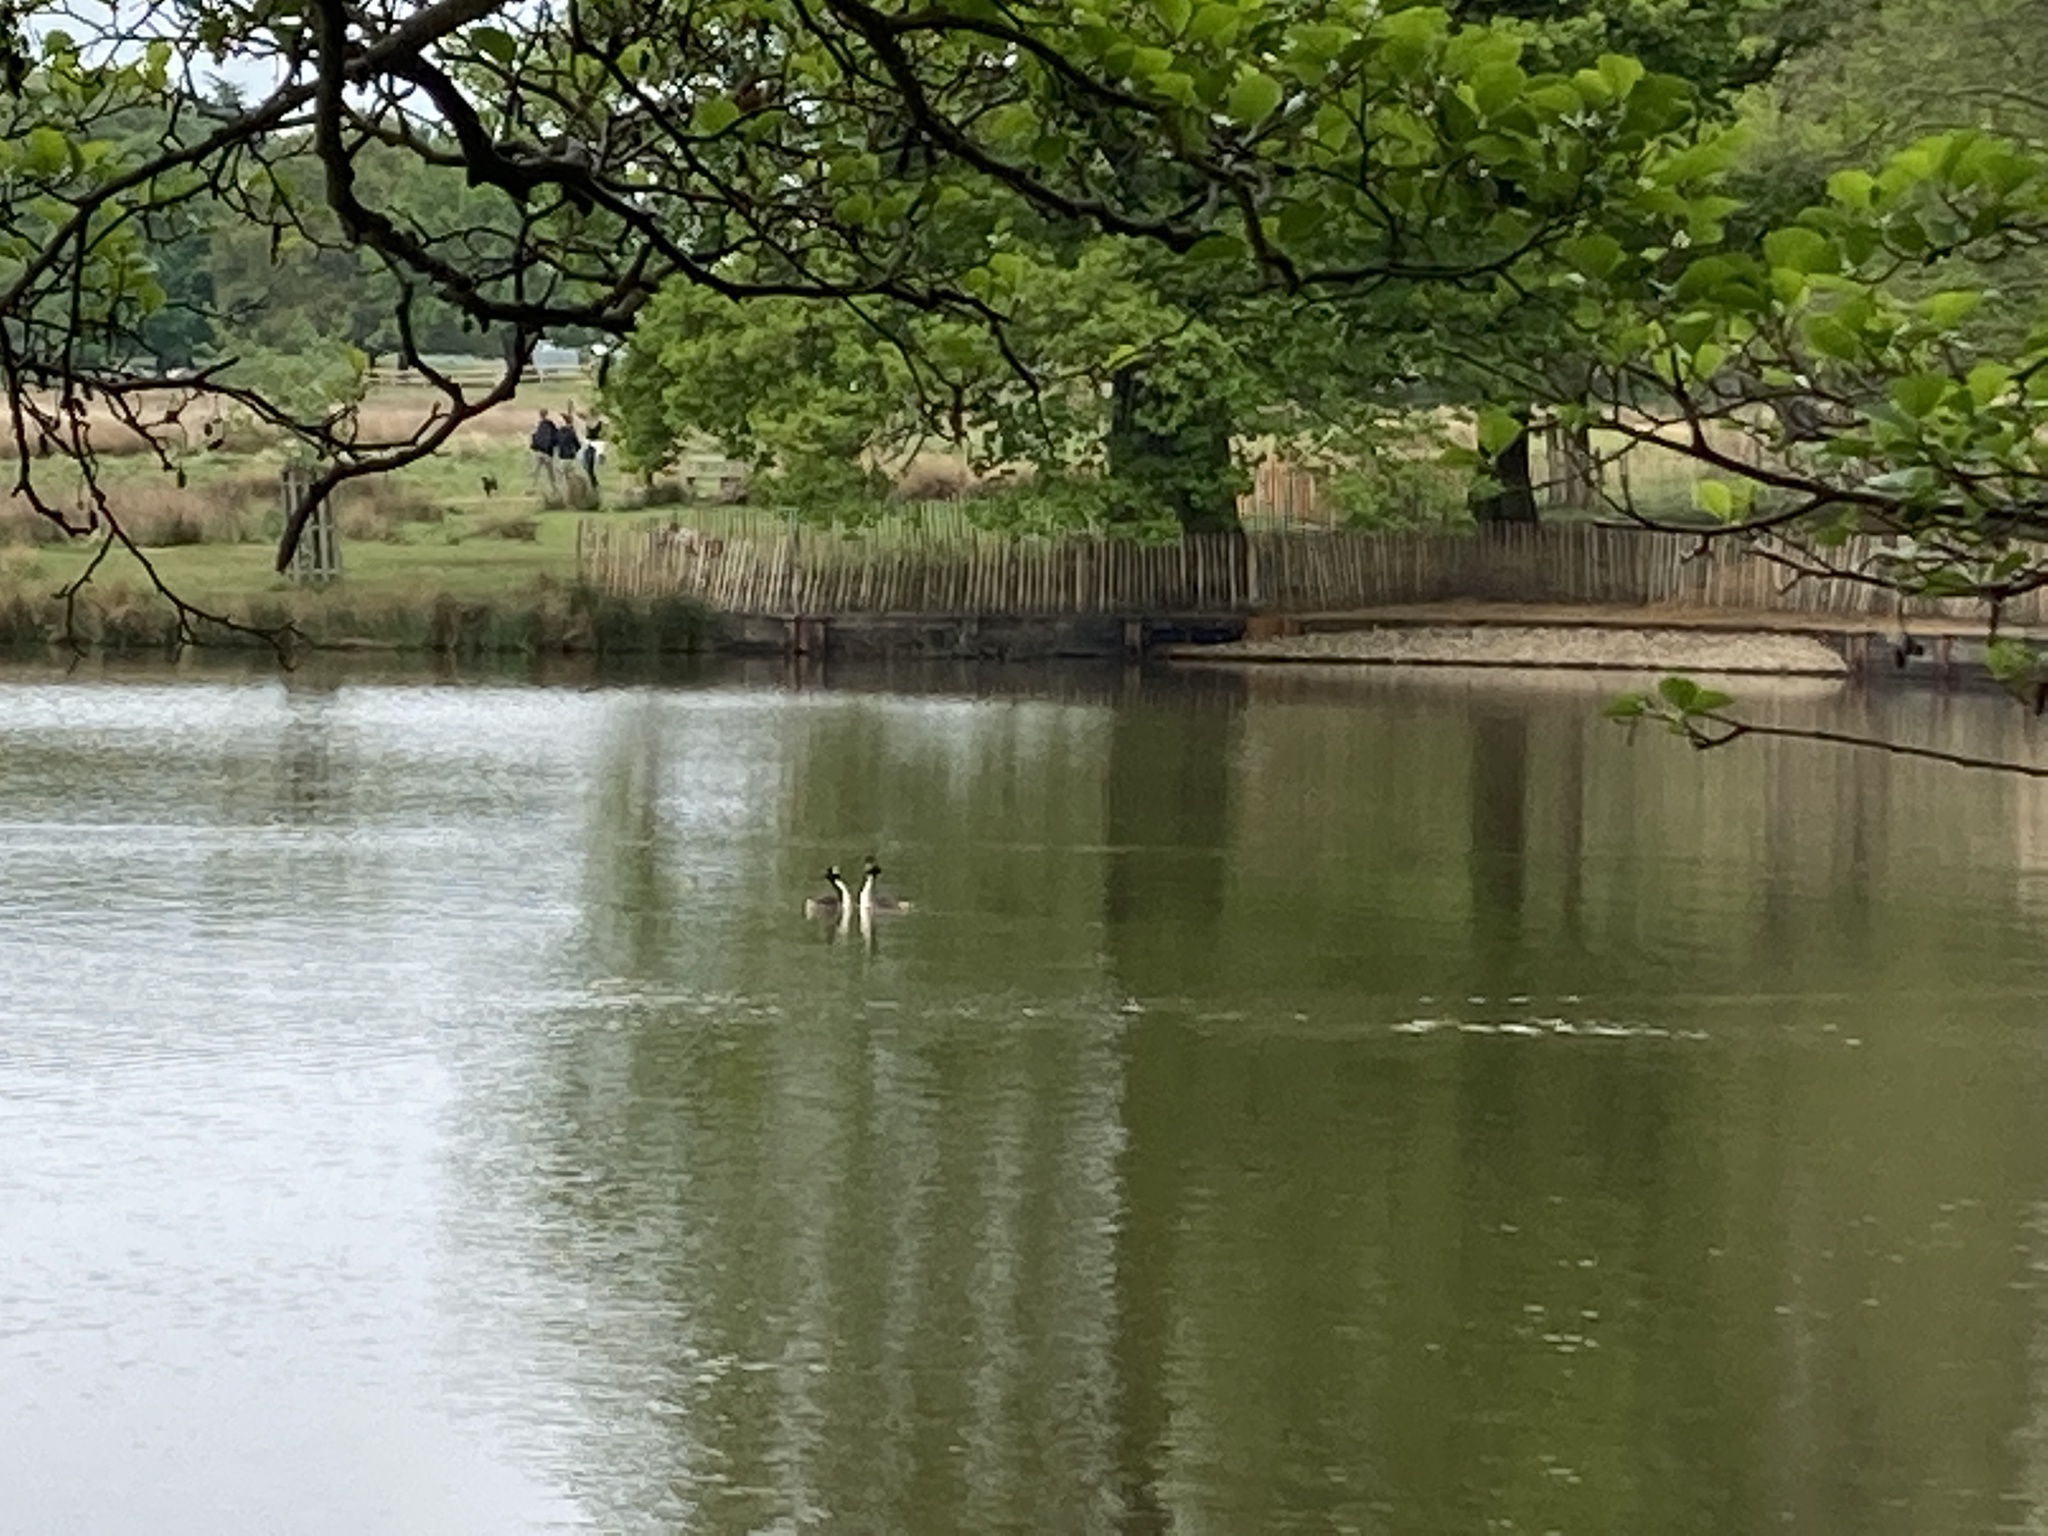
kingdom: Animalia
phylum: Chordata
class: Aves
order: Podicipediformes
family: Podicipedidae
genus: Podiceps
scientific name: Podiceps cristatus
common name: Great crested grebe
